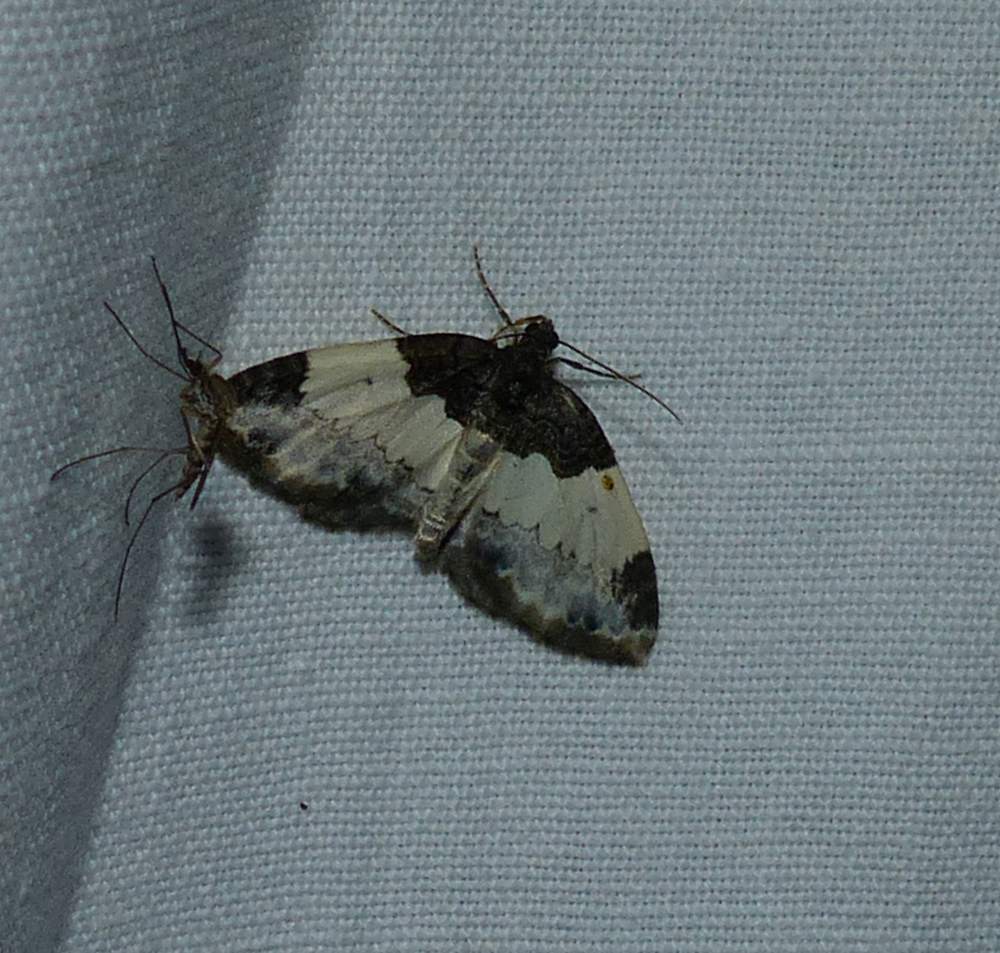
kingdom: Animalia
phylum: Arthropoda
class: Insecta
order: Lepidoptera
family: Geometridae
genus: Mesoleuca
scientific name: Mesoleuca ruficillata
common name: White-ribboned carpet moth
